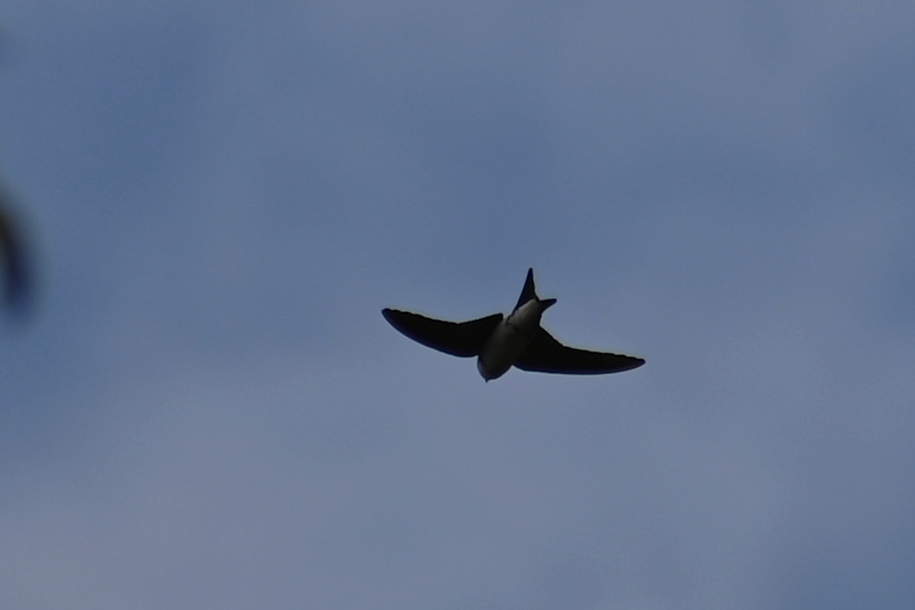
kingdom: Animalia
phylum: Chordata
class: Aves
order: Passeriformes
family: Hirundinidae
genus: Delichon
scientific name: Delichon urbicum
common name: Common house martin
